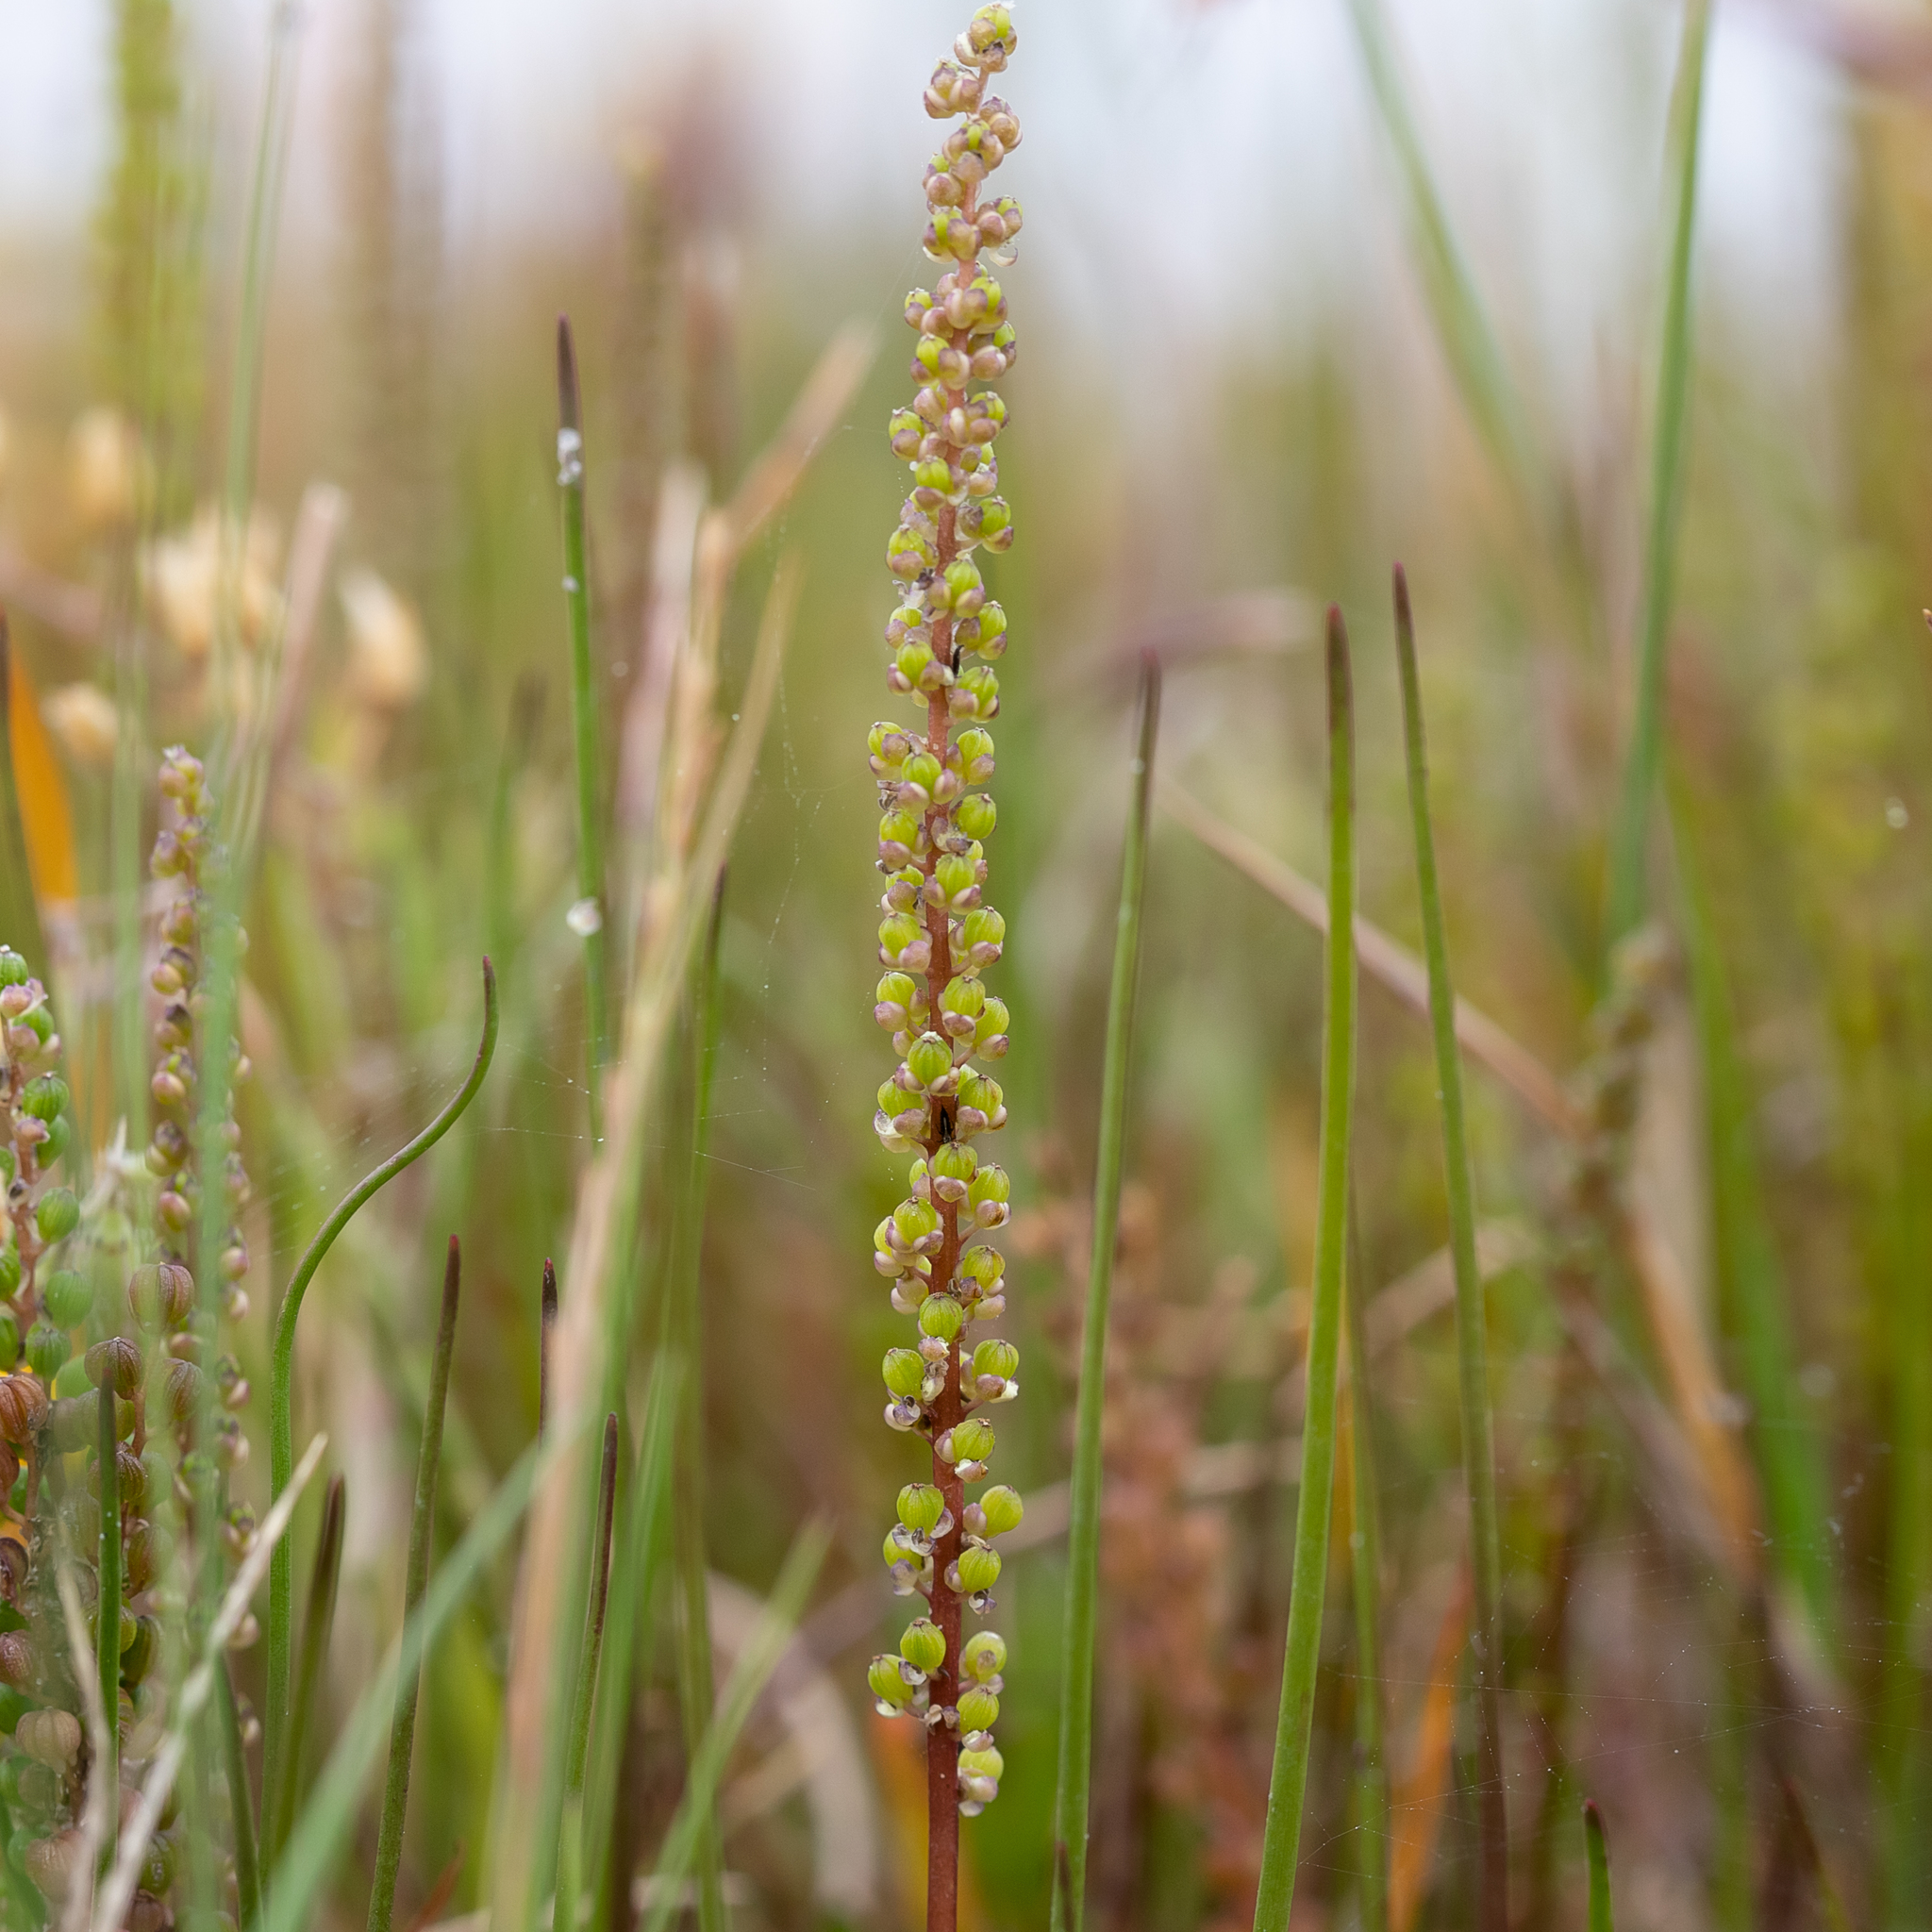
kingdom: Plantae
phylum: Tracheophyta
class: Liliopsida
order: Alismatales
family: Juncaginaceae
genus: Triglochin
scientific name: Triglochin striata
